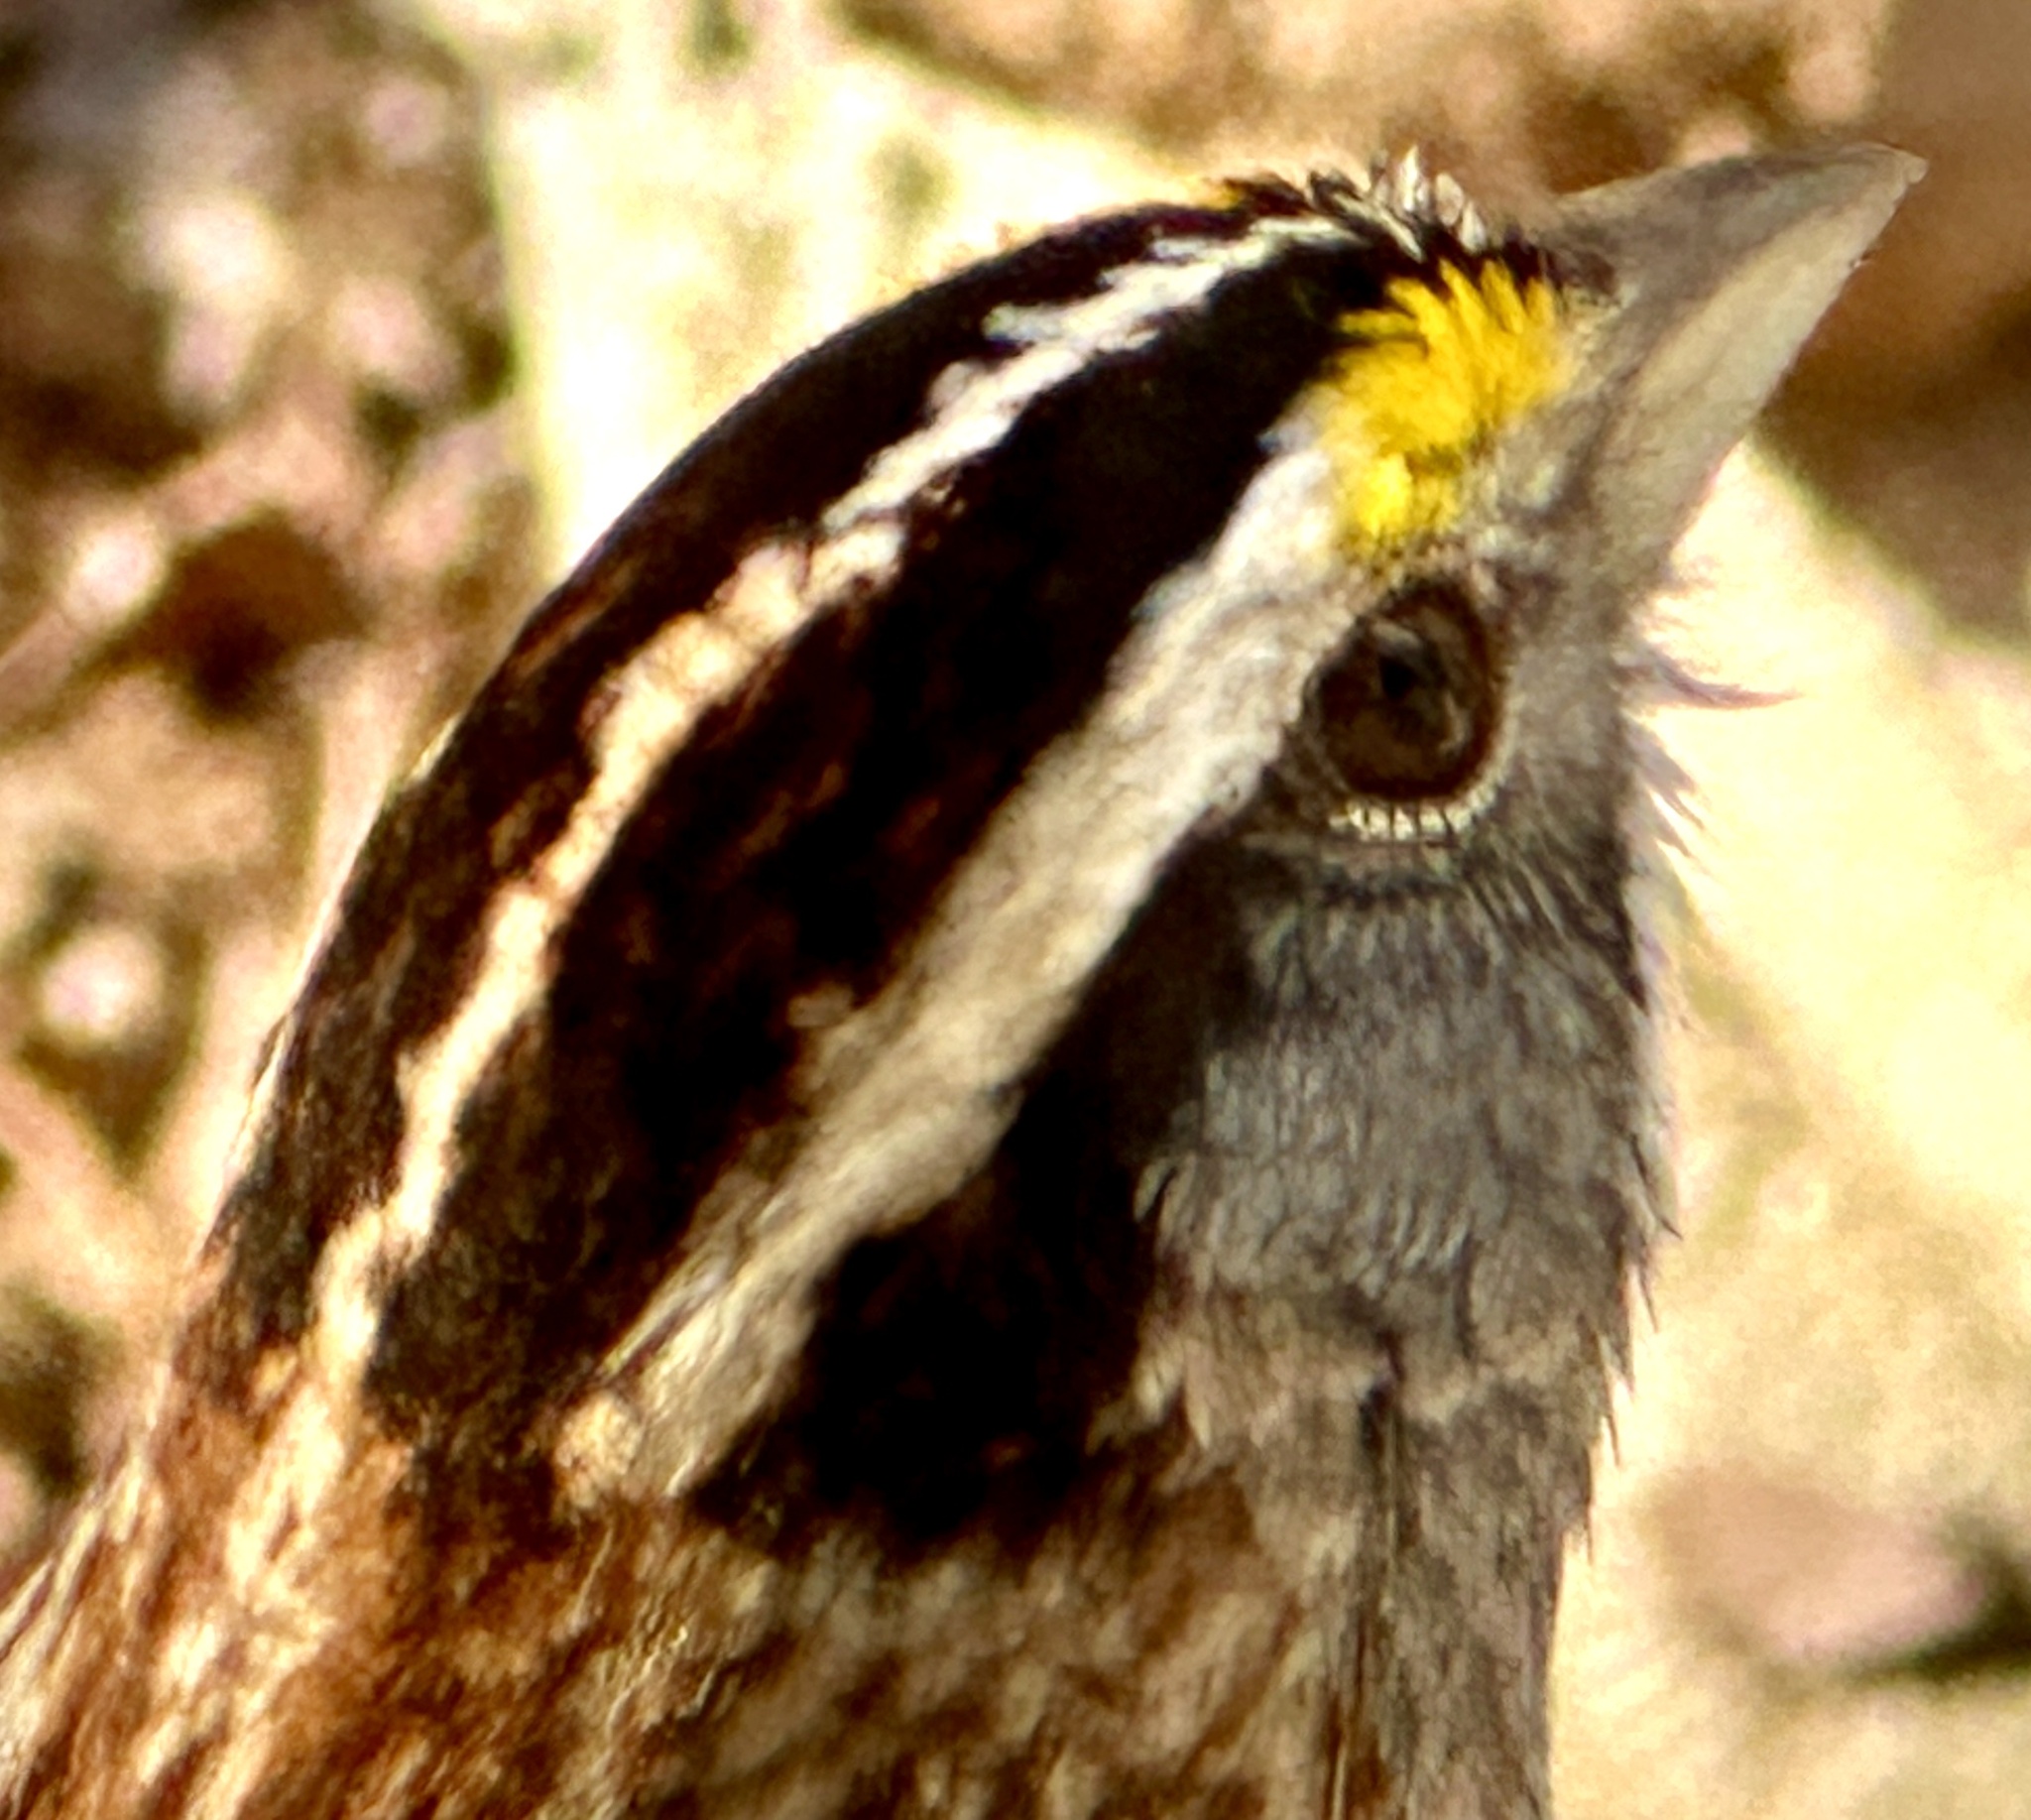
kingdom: Animalia
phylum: Chordata
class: Aves
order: Passeriformes
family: Passerellidae
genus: Zonotrichia
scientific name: Zonotrichia albicollis
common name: White-throated sparrow
